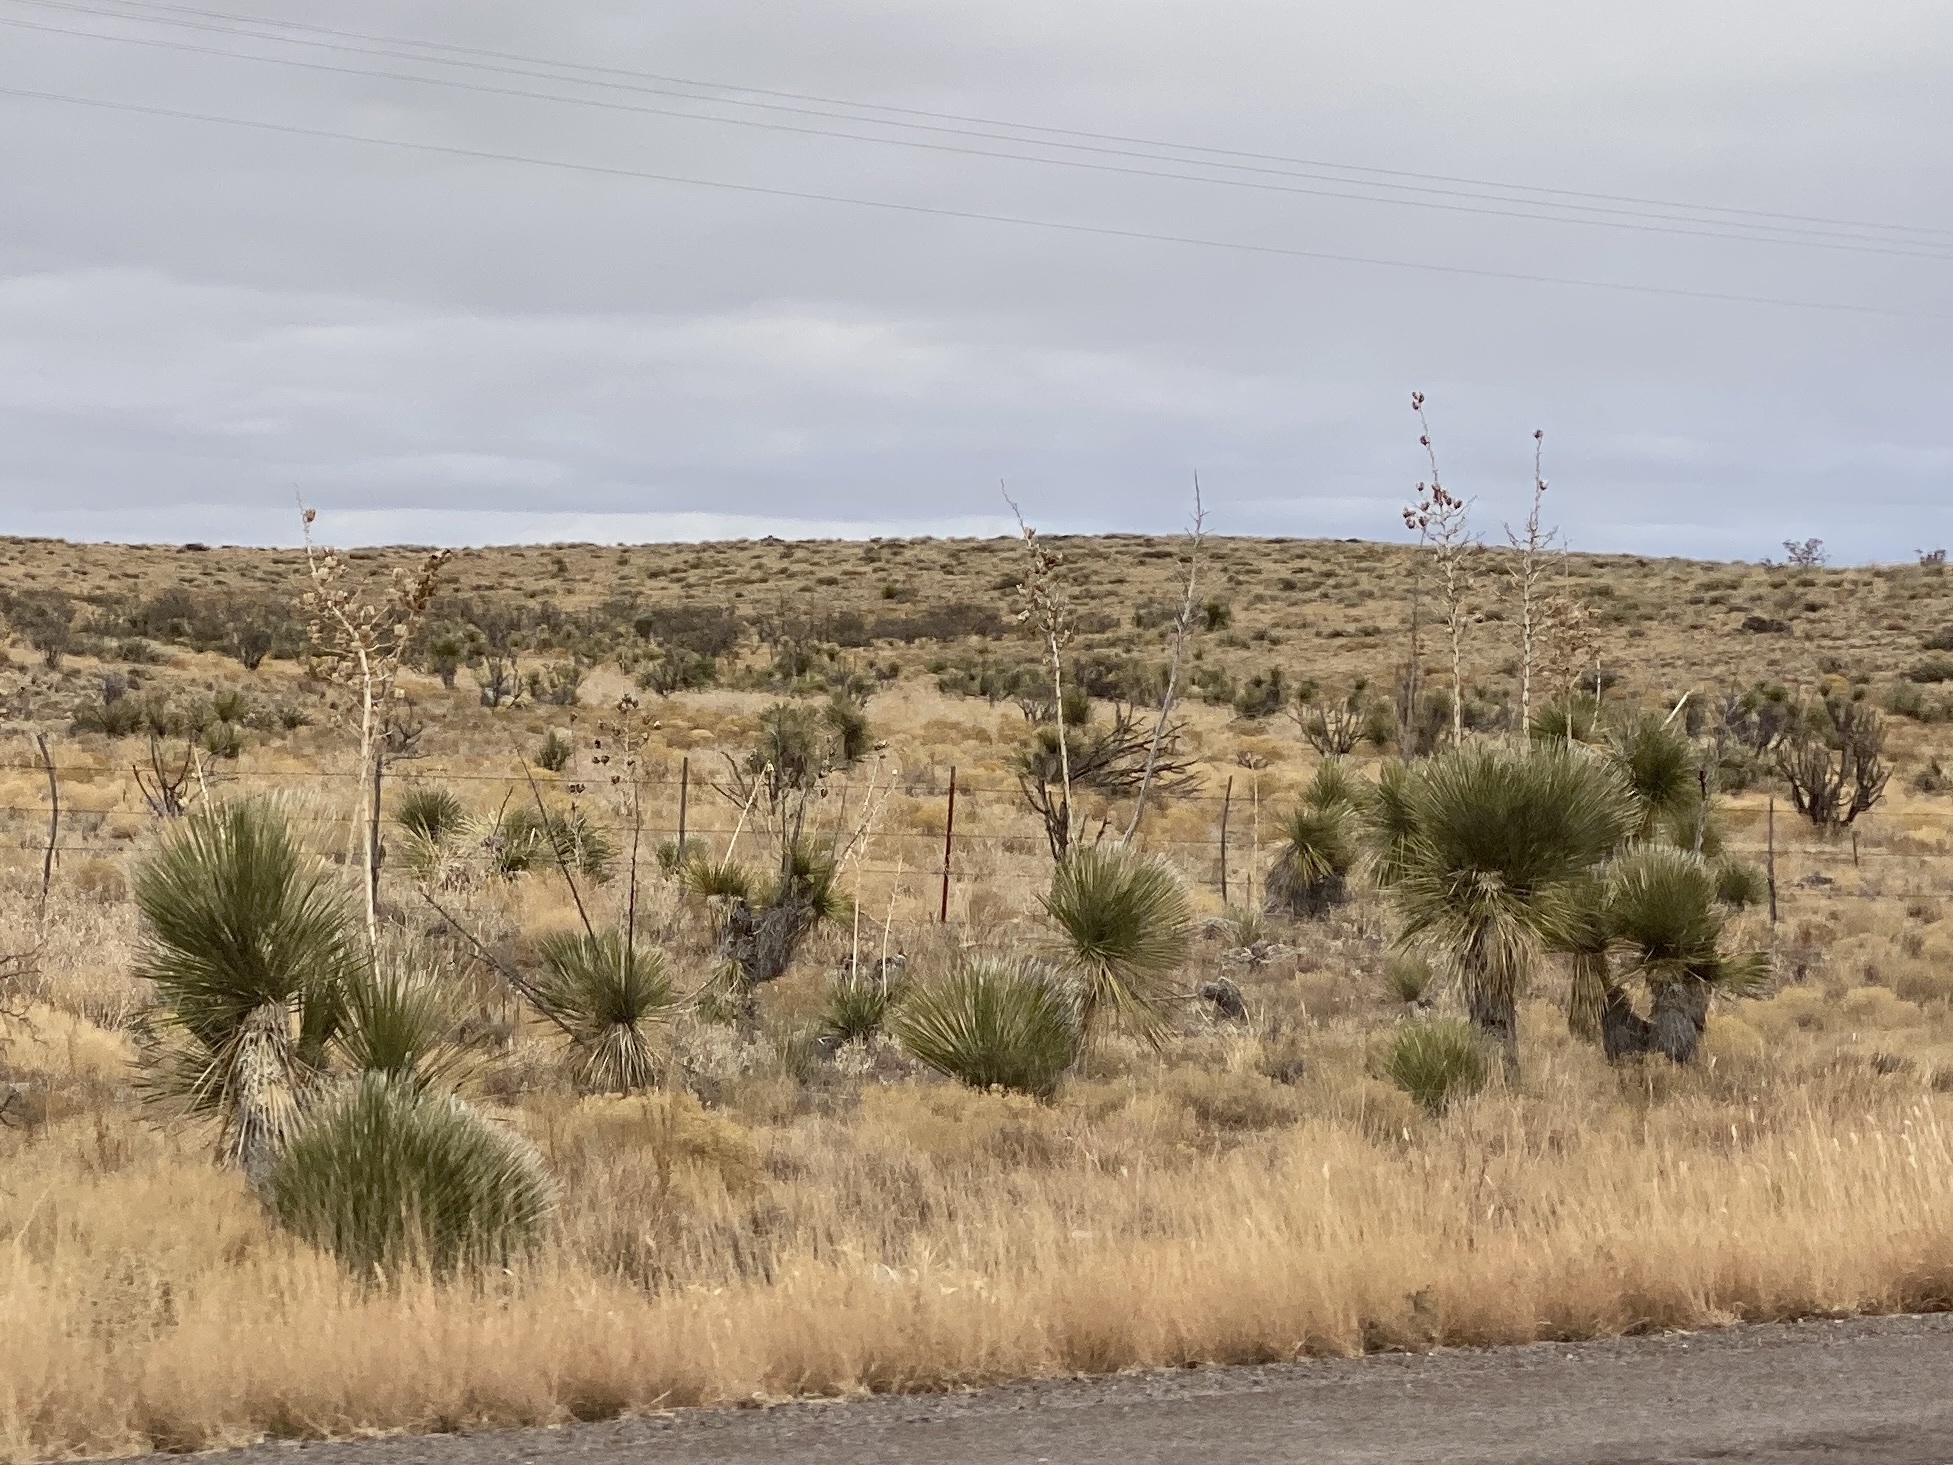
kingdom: Plantae
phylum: Tracheophyta
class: Liliopsida
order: Asparagales
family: Asparagaceae
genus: Yucca
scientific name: Yucca elata
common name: Palmella
